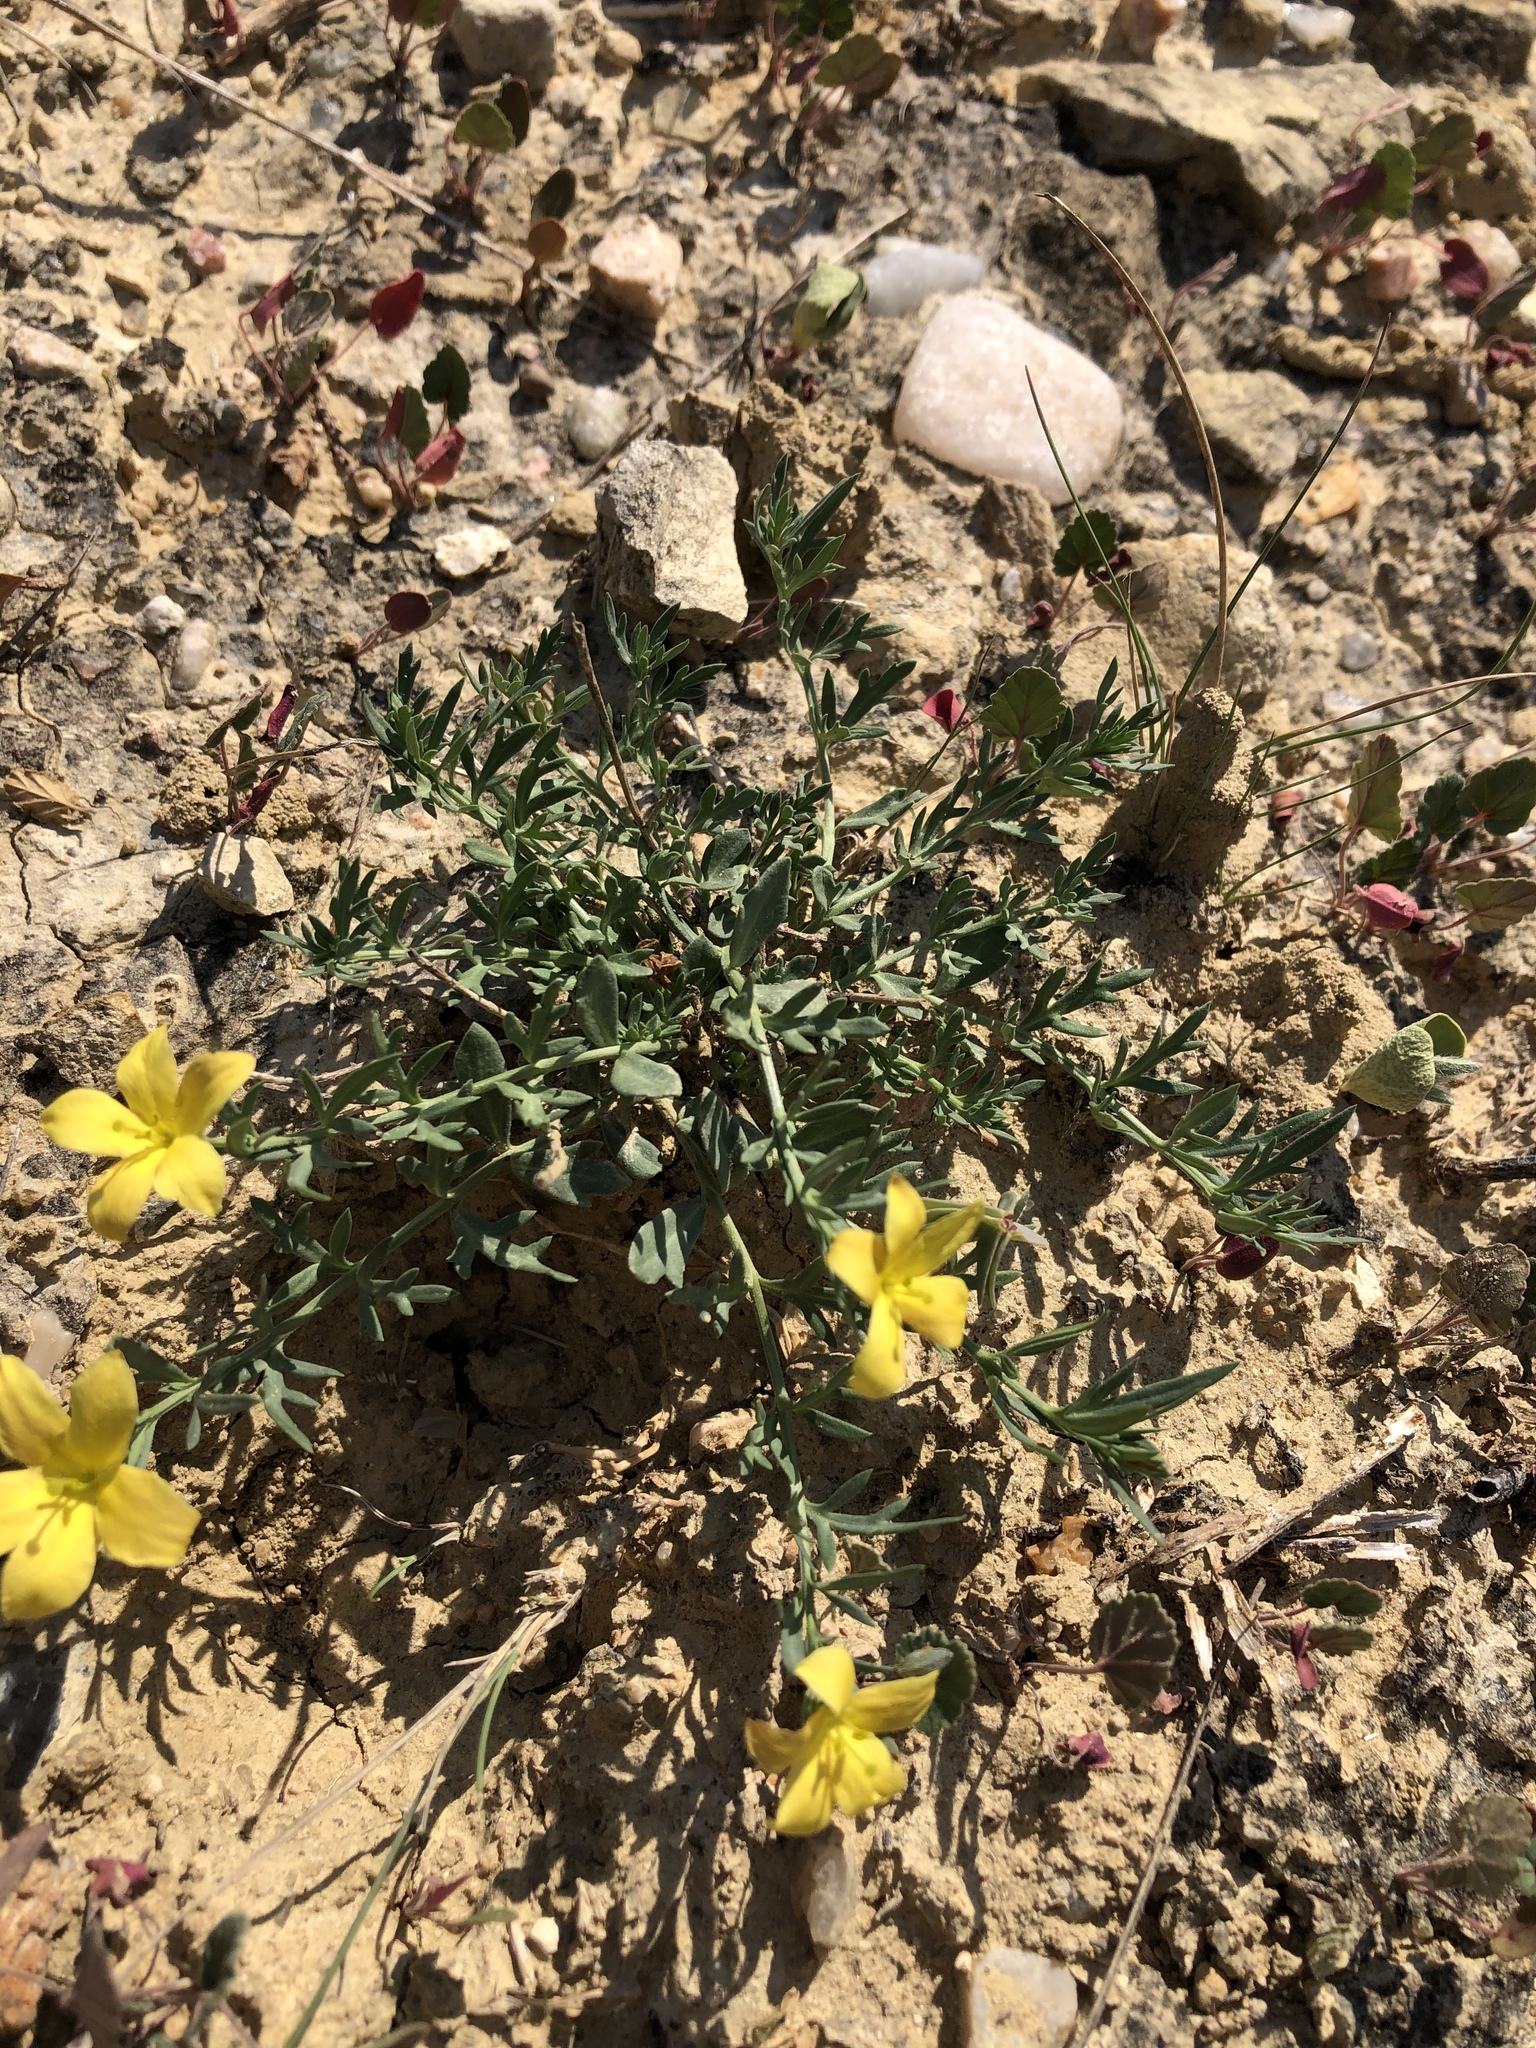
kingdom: Plantae
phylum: Tracheophyta
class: Magnoliopsida
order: Lamiales
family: Oleaceae
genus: Menodora
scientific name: Menodora heterophylla
